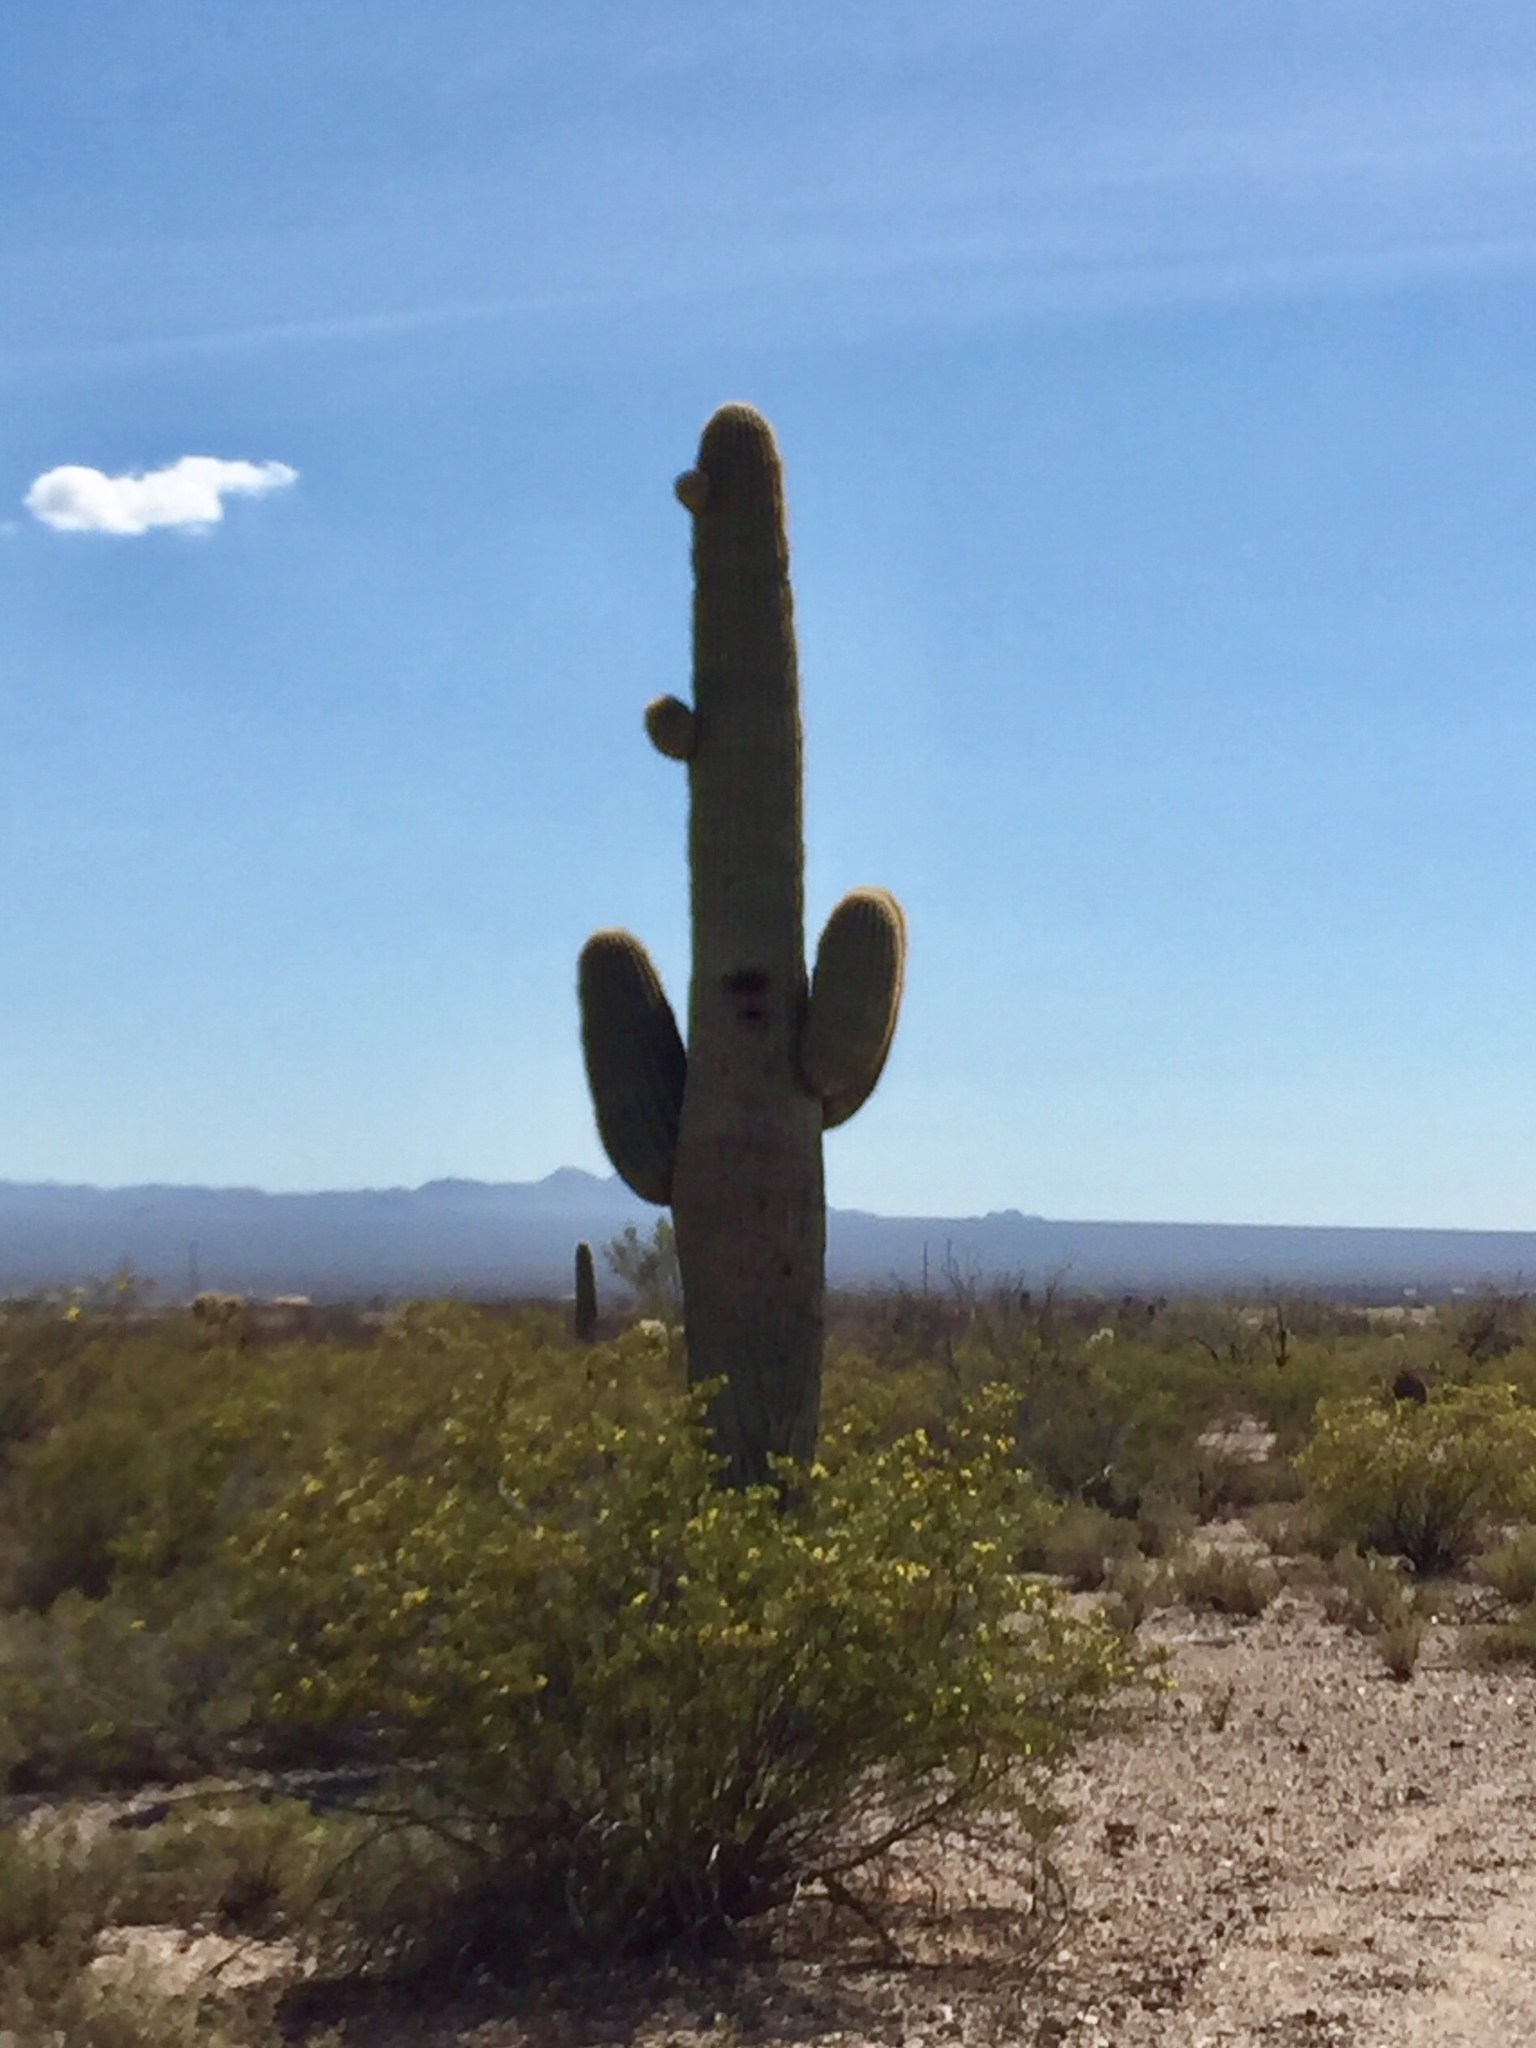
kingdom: Plantae
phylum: Tracheophyta
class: Magnoliopsida
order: Zygophyllales
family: Zygophyllaceae
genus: Larrea
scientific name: Larrea tridentata
